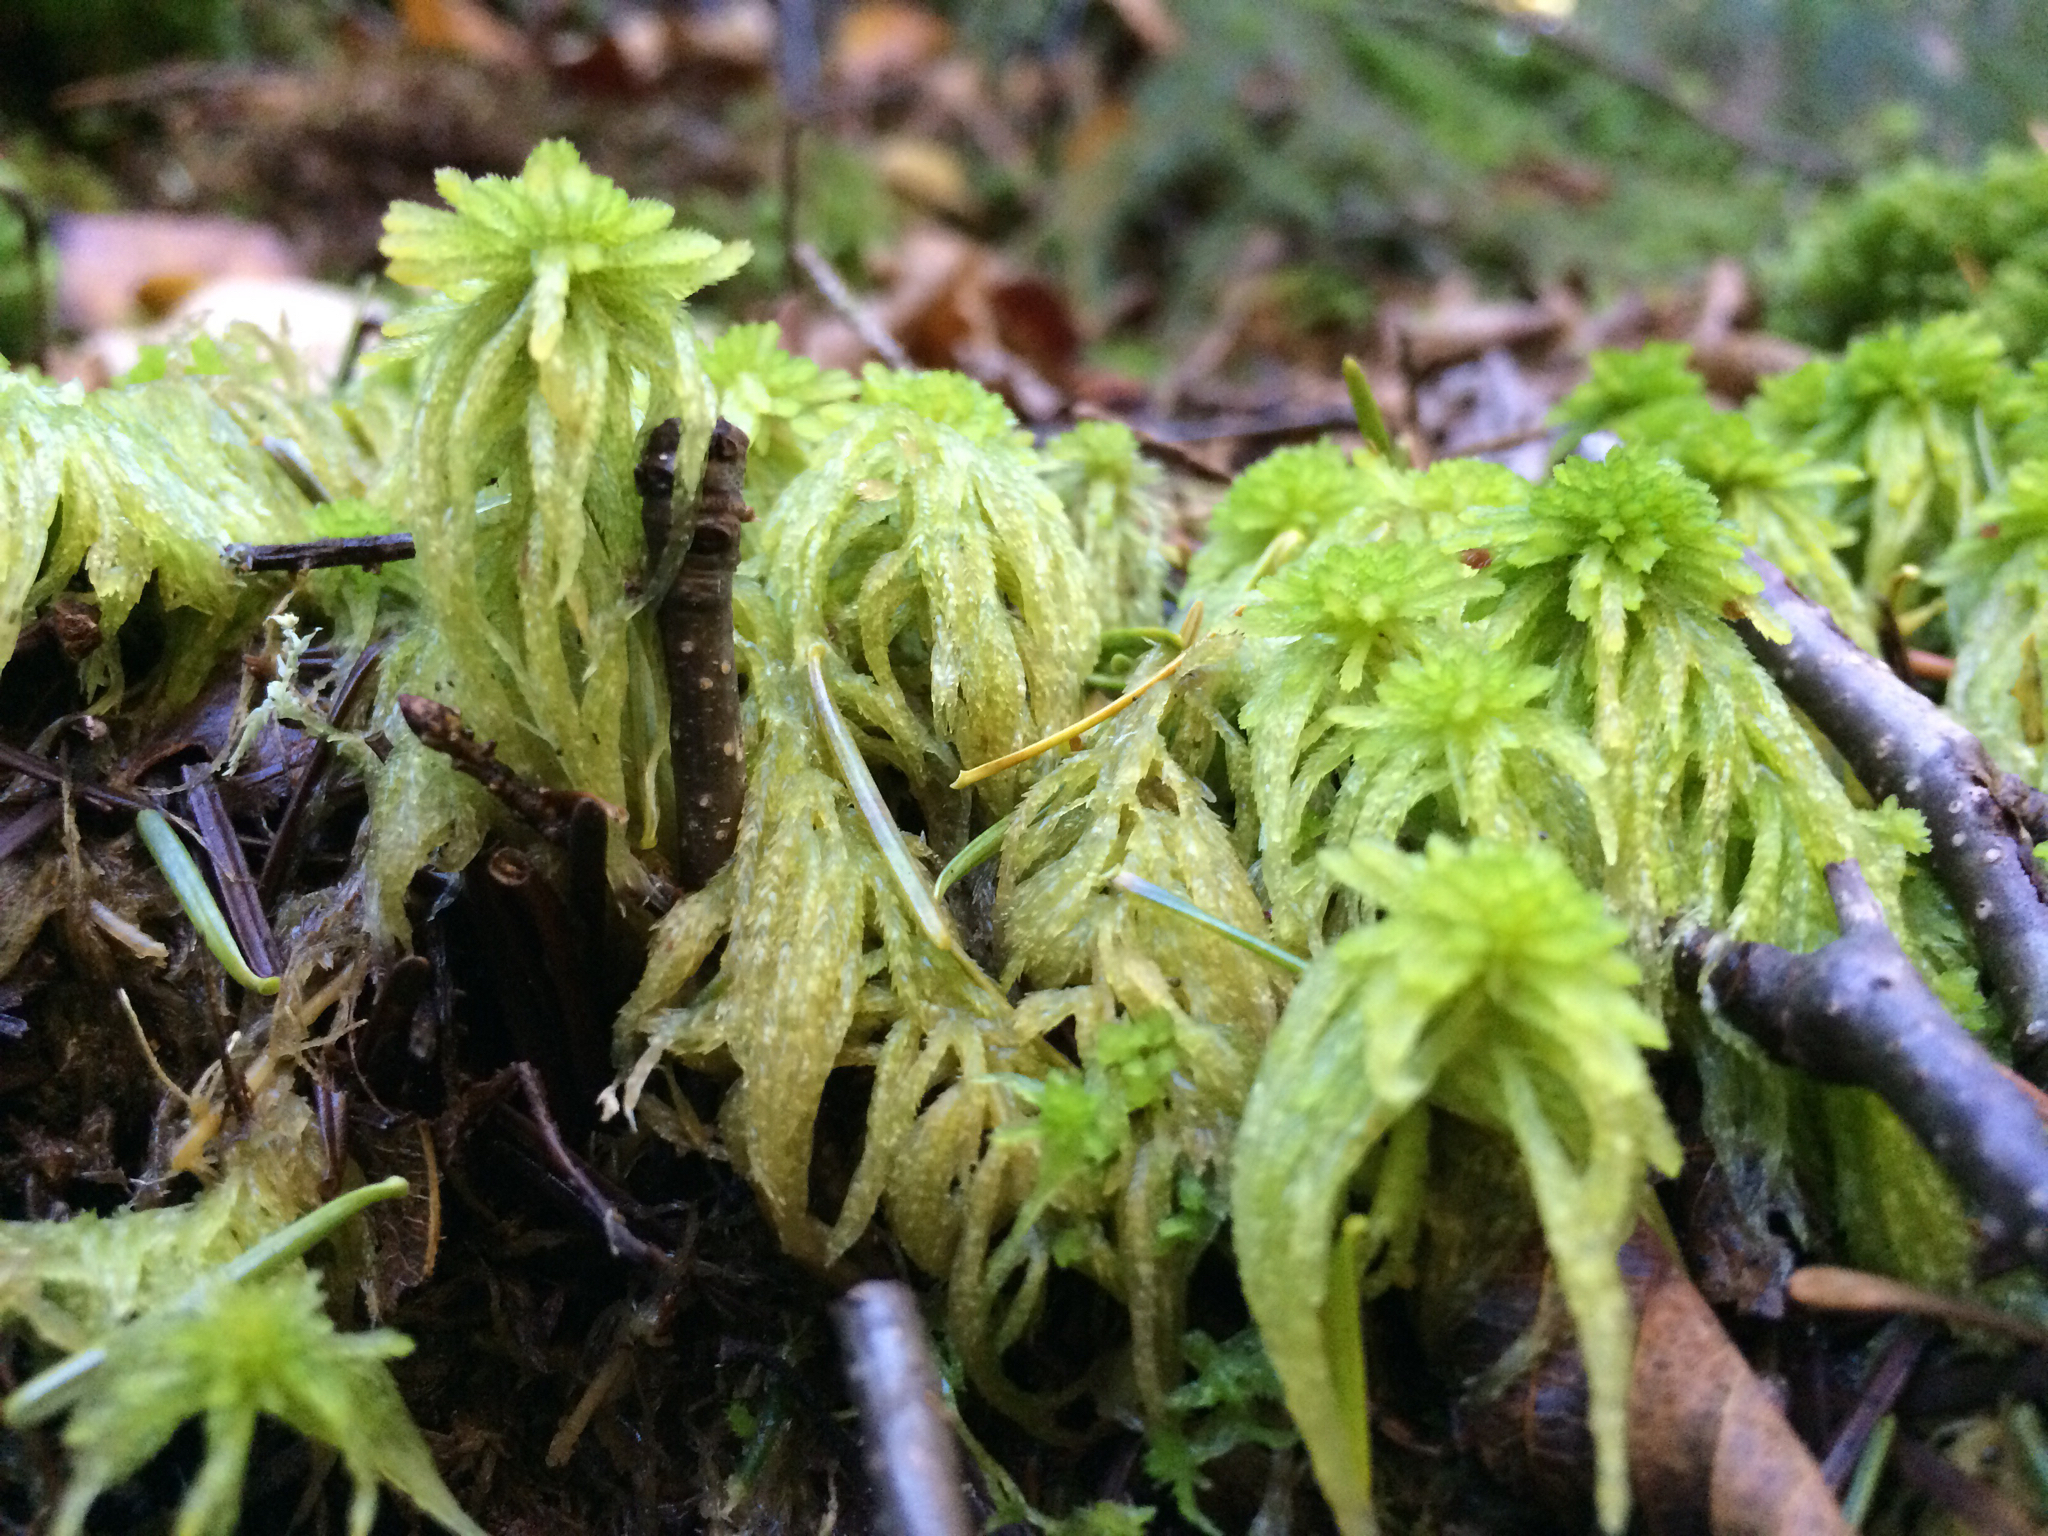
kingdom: Plantae
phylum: Bryophyta
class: Sphagnopsida
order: Sphagnales
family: Sphagnaceae
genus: Sphagnum
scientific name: Sphagnum
